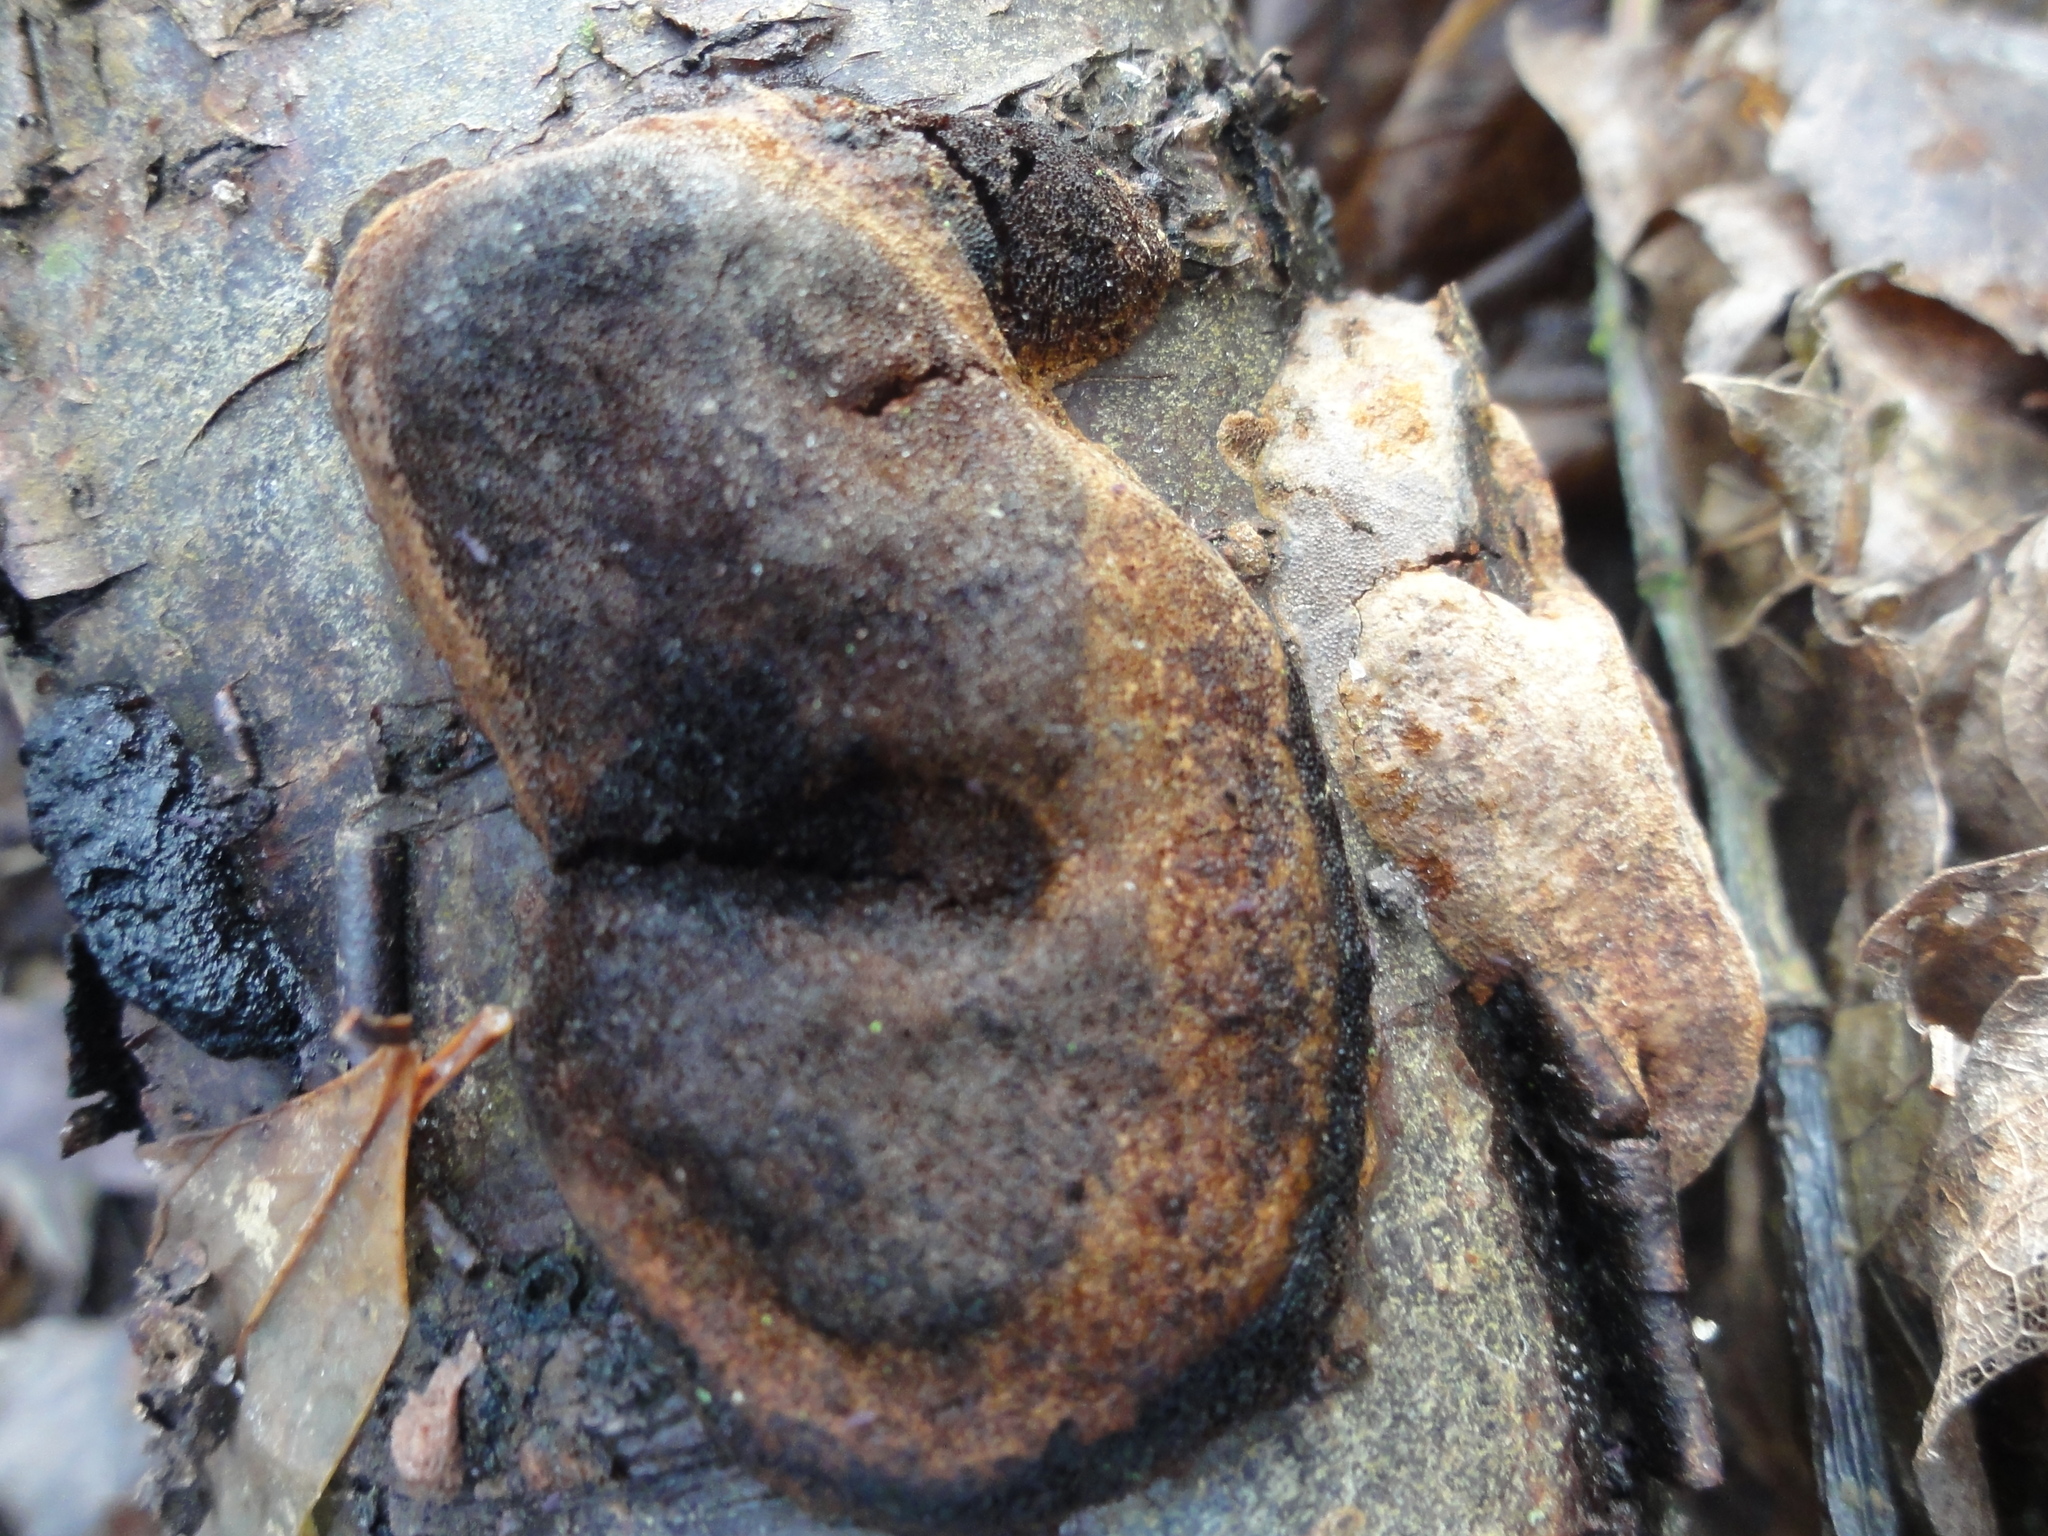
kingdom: Fungi
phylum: Basidiomycota
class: Agaricomycetes
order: Hymenochaetales
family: Hymenochaetaceae
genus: Phellinus
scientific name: Phellinus pomaceus
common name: Cushion bracket
